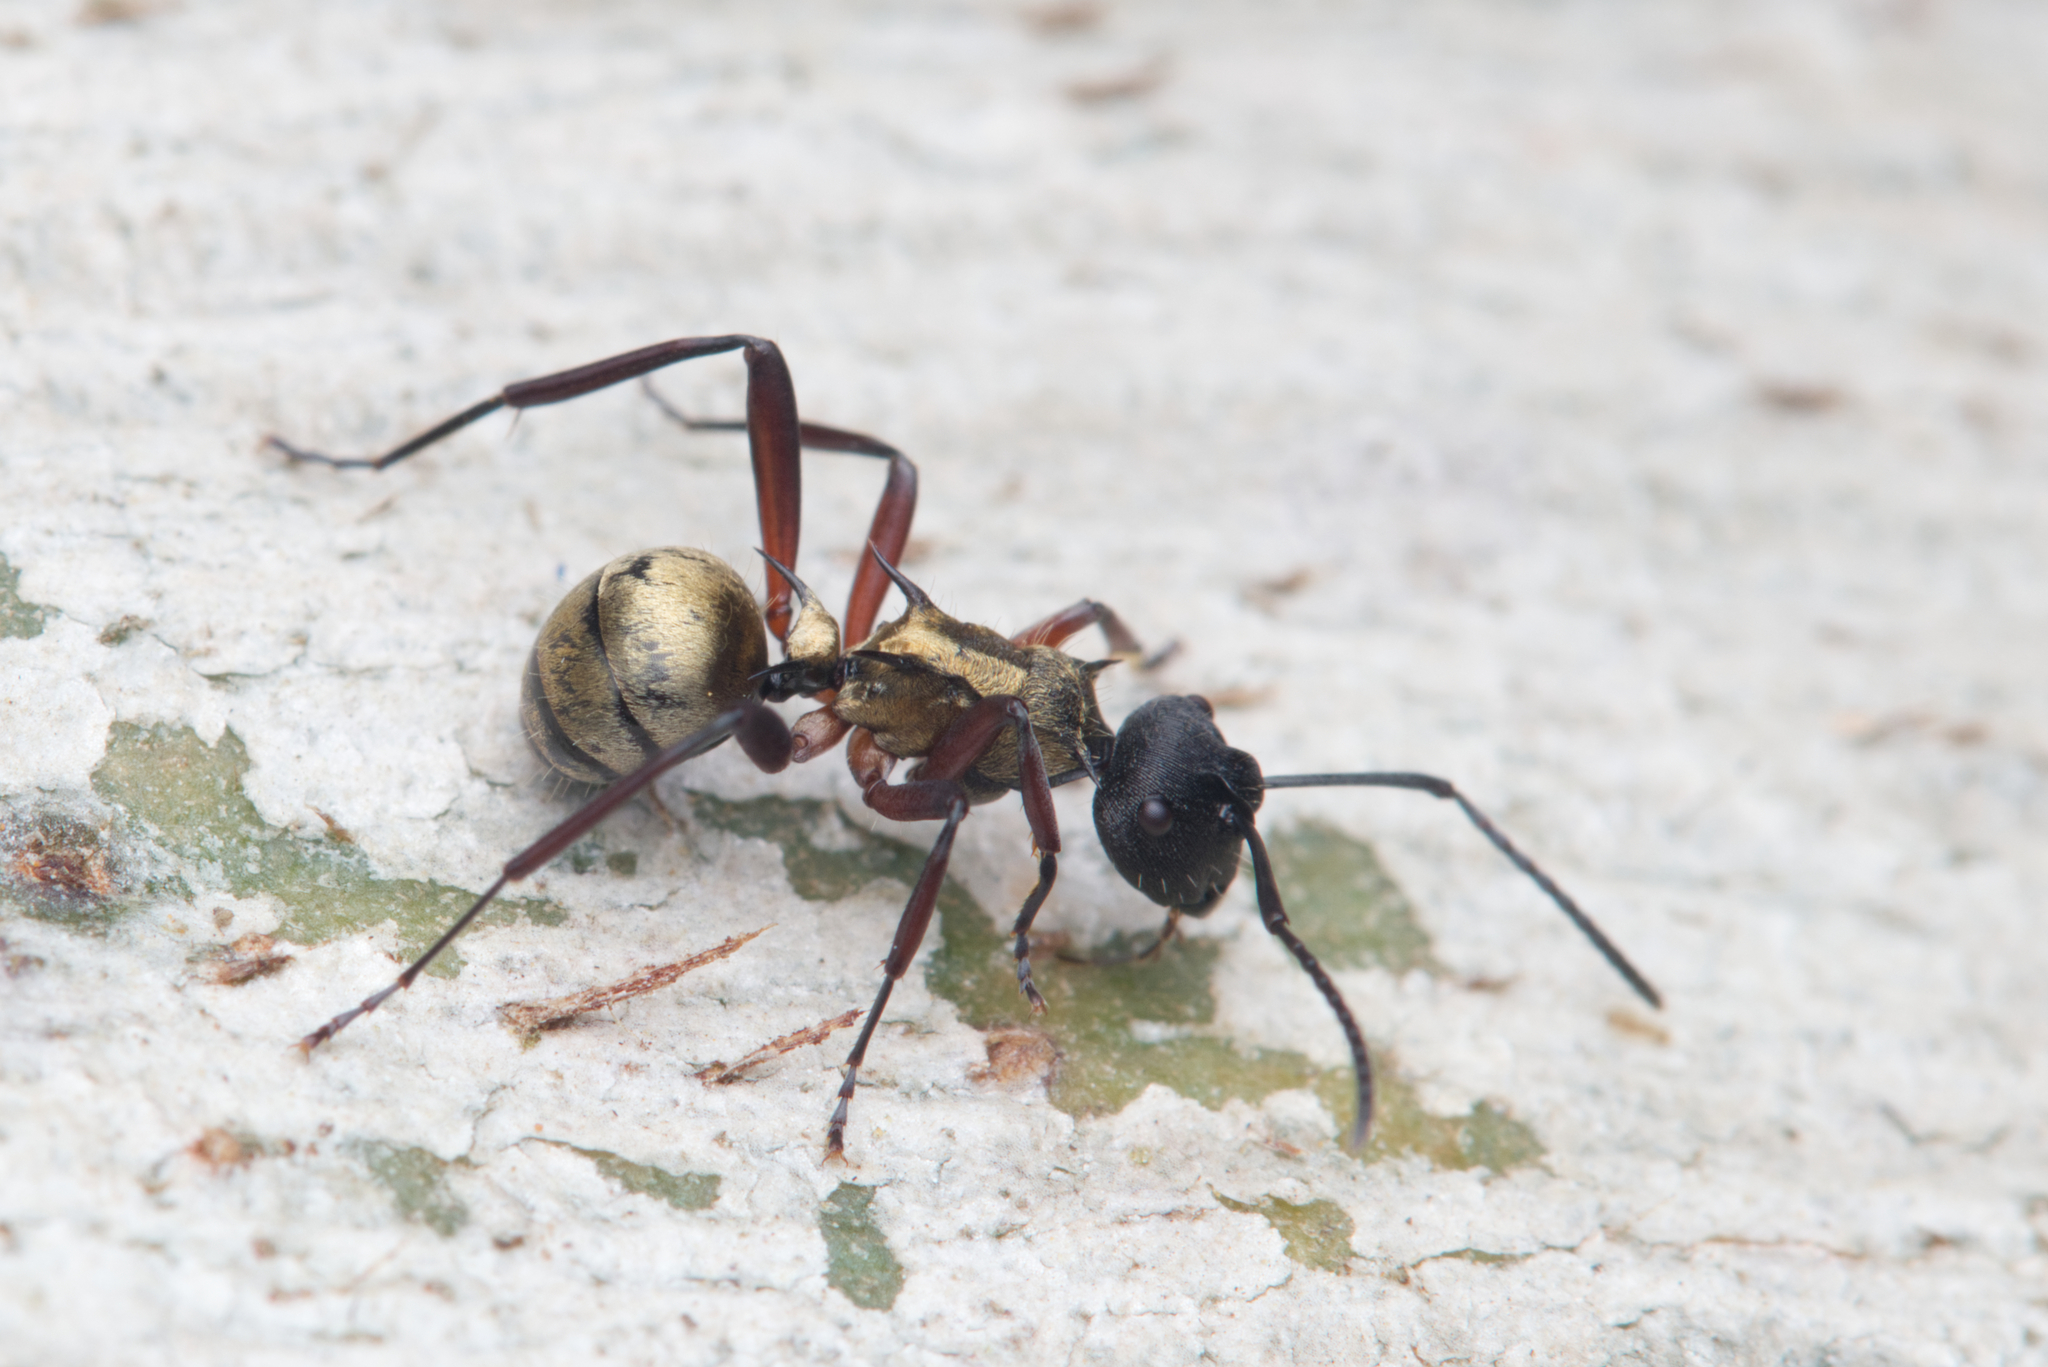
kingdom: Animalia
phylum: Arthropoda
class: Insecta
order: Hymenoptera
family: Formicidae
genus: Polyrhachis
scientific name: Polyrhachis rufifemur
